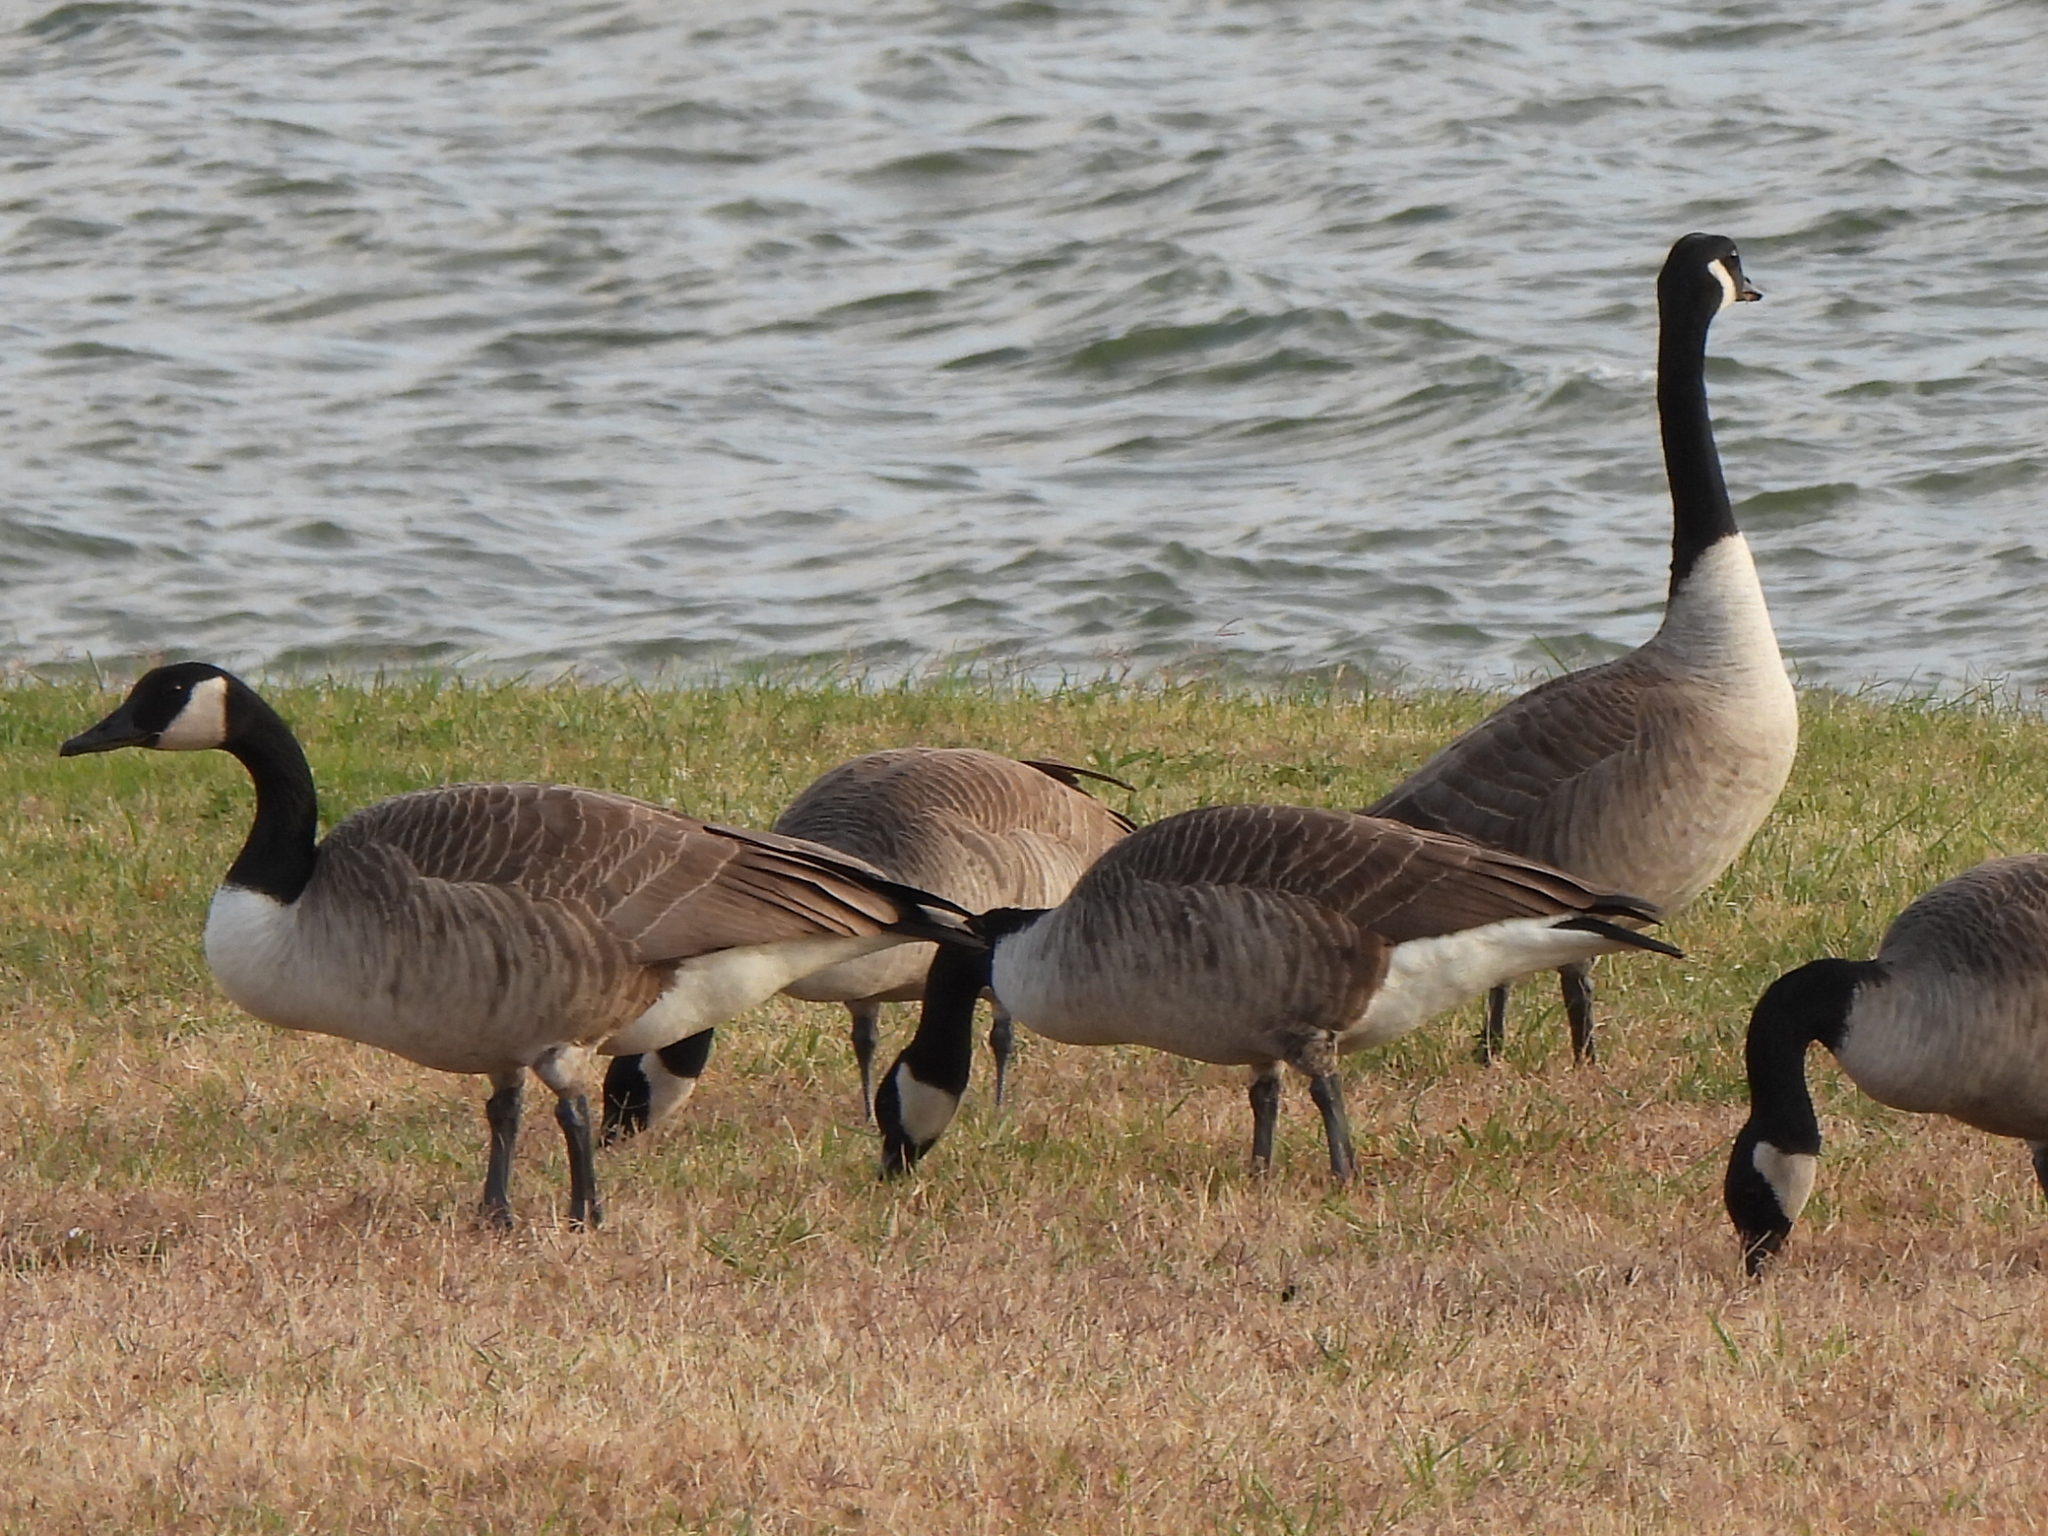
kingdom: Animalia
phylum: Chordata
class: Aves
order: Anseriformes
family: Anatidae
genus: Branta
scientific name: Branta canadensis
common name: Canada goose
